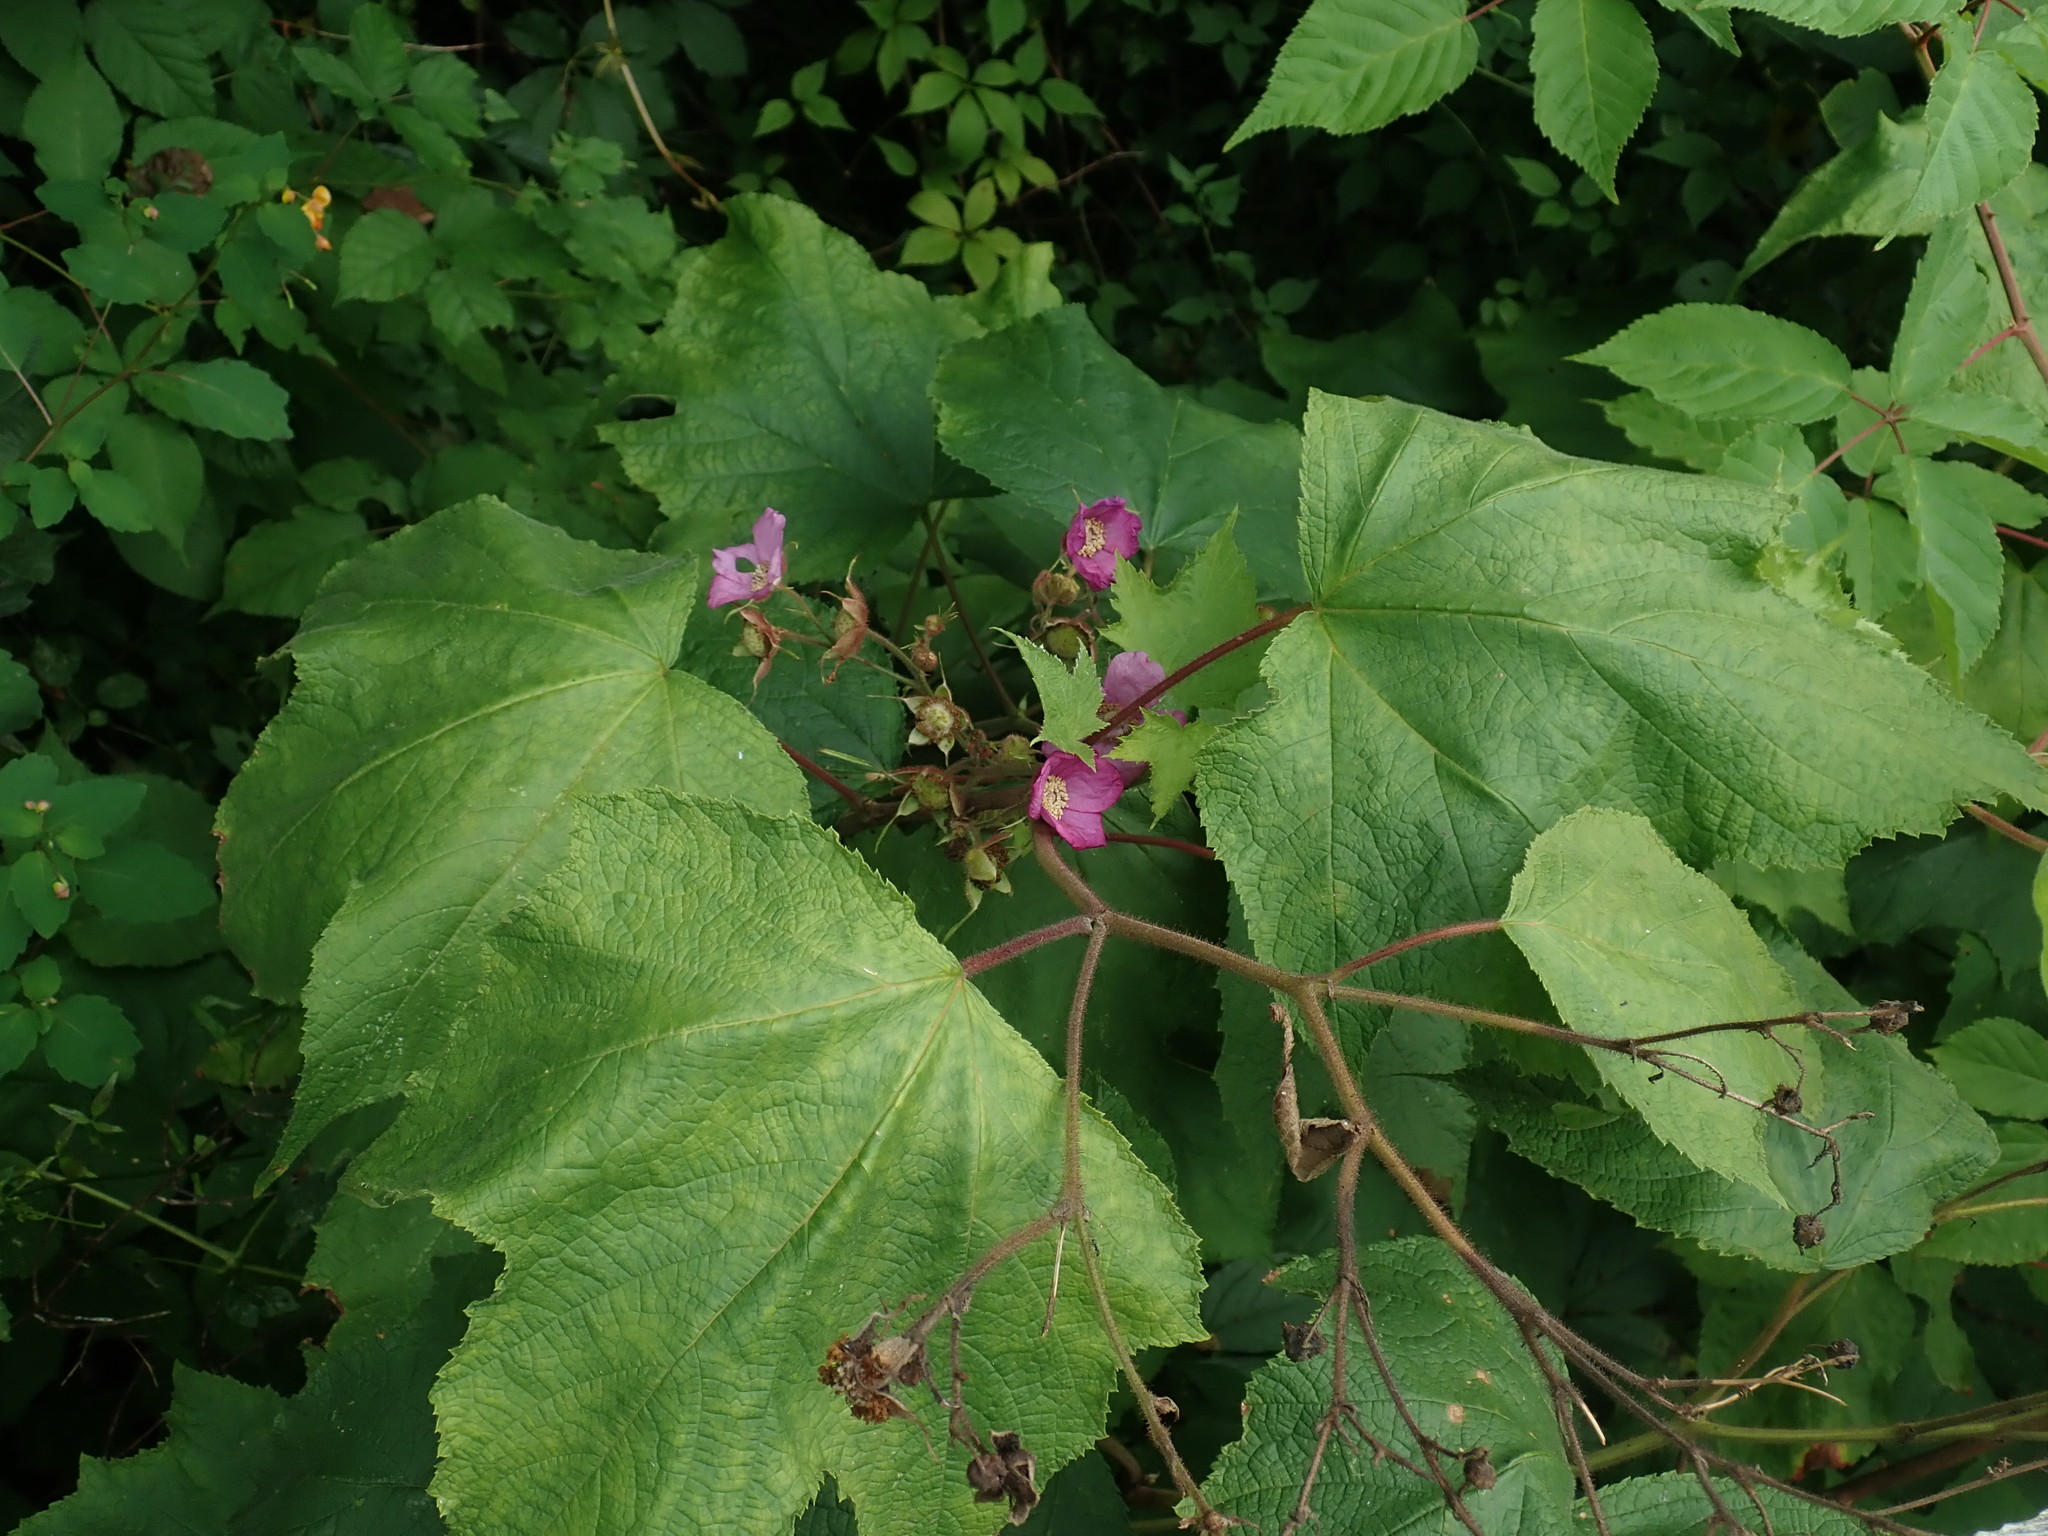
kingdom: Plantae
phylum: Tracheophyta
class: Magnoliopsida
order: Rosales
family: Rosaceae
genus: Rubus
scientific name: Rubus odoratus
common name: Purple-flowered raspberry
